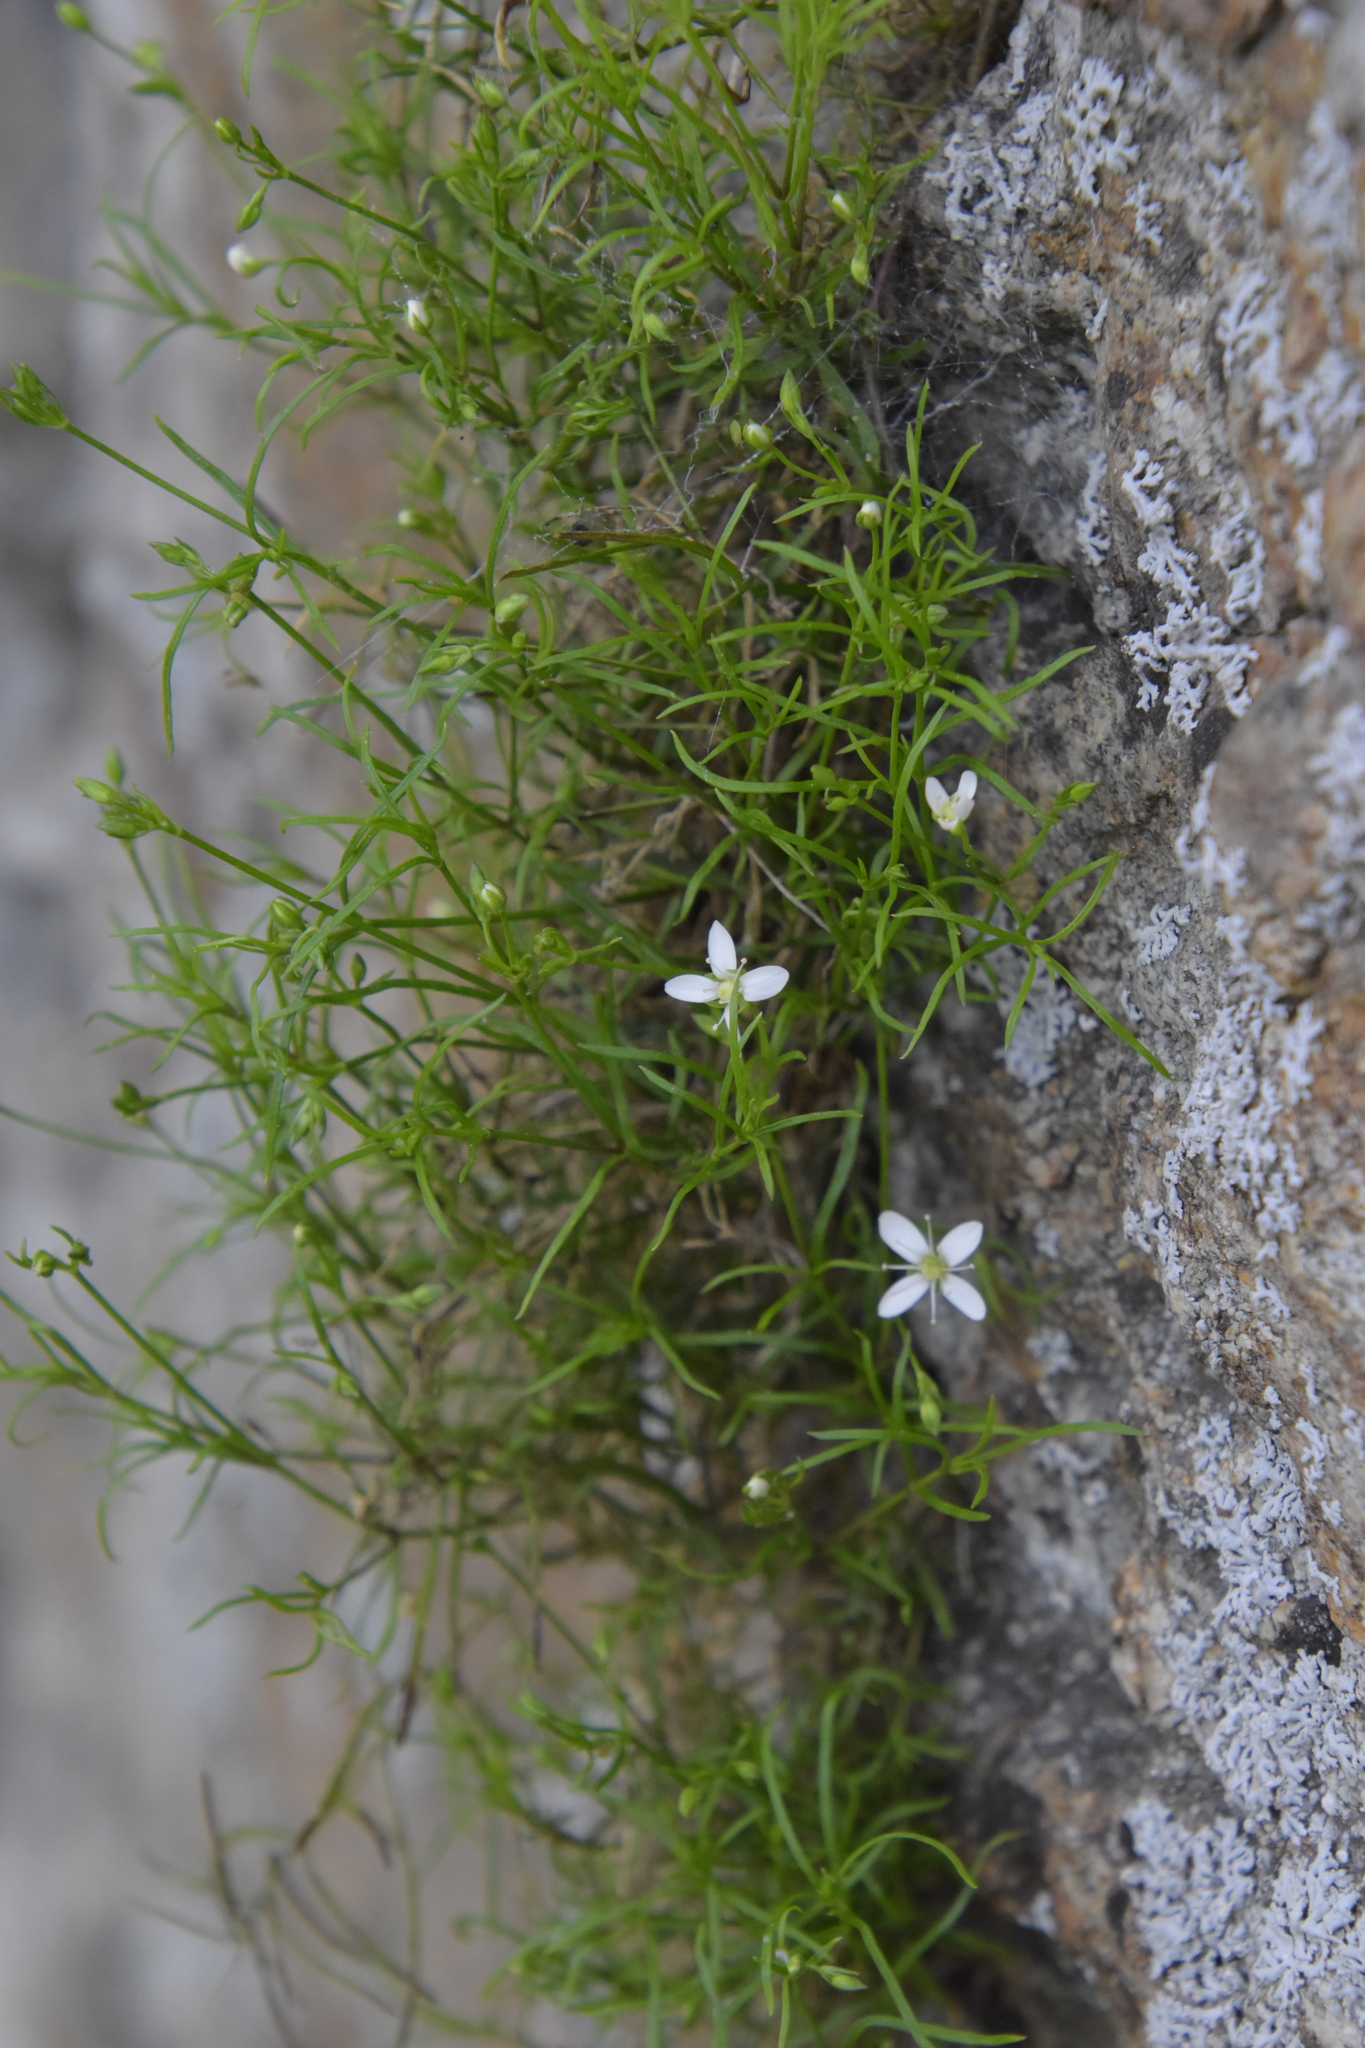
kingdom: Plantae
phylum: Tracheophyta
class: Magnoliopsida
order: Caryophyllales
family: Caryophyllaceae
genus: Moehringia
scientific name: Moehringia muscosa
